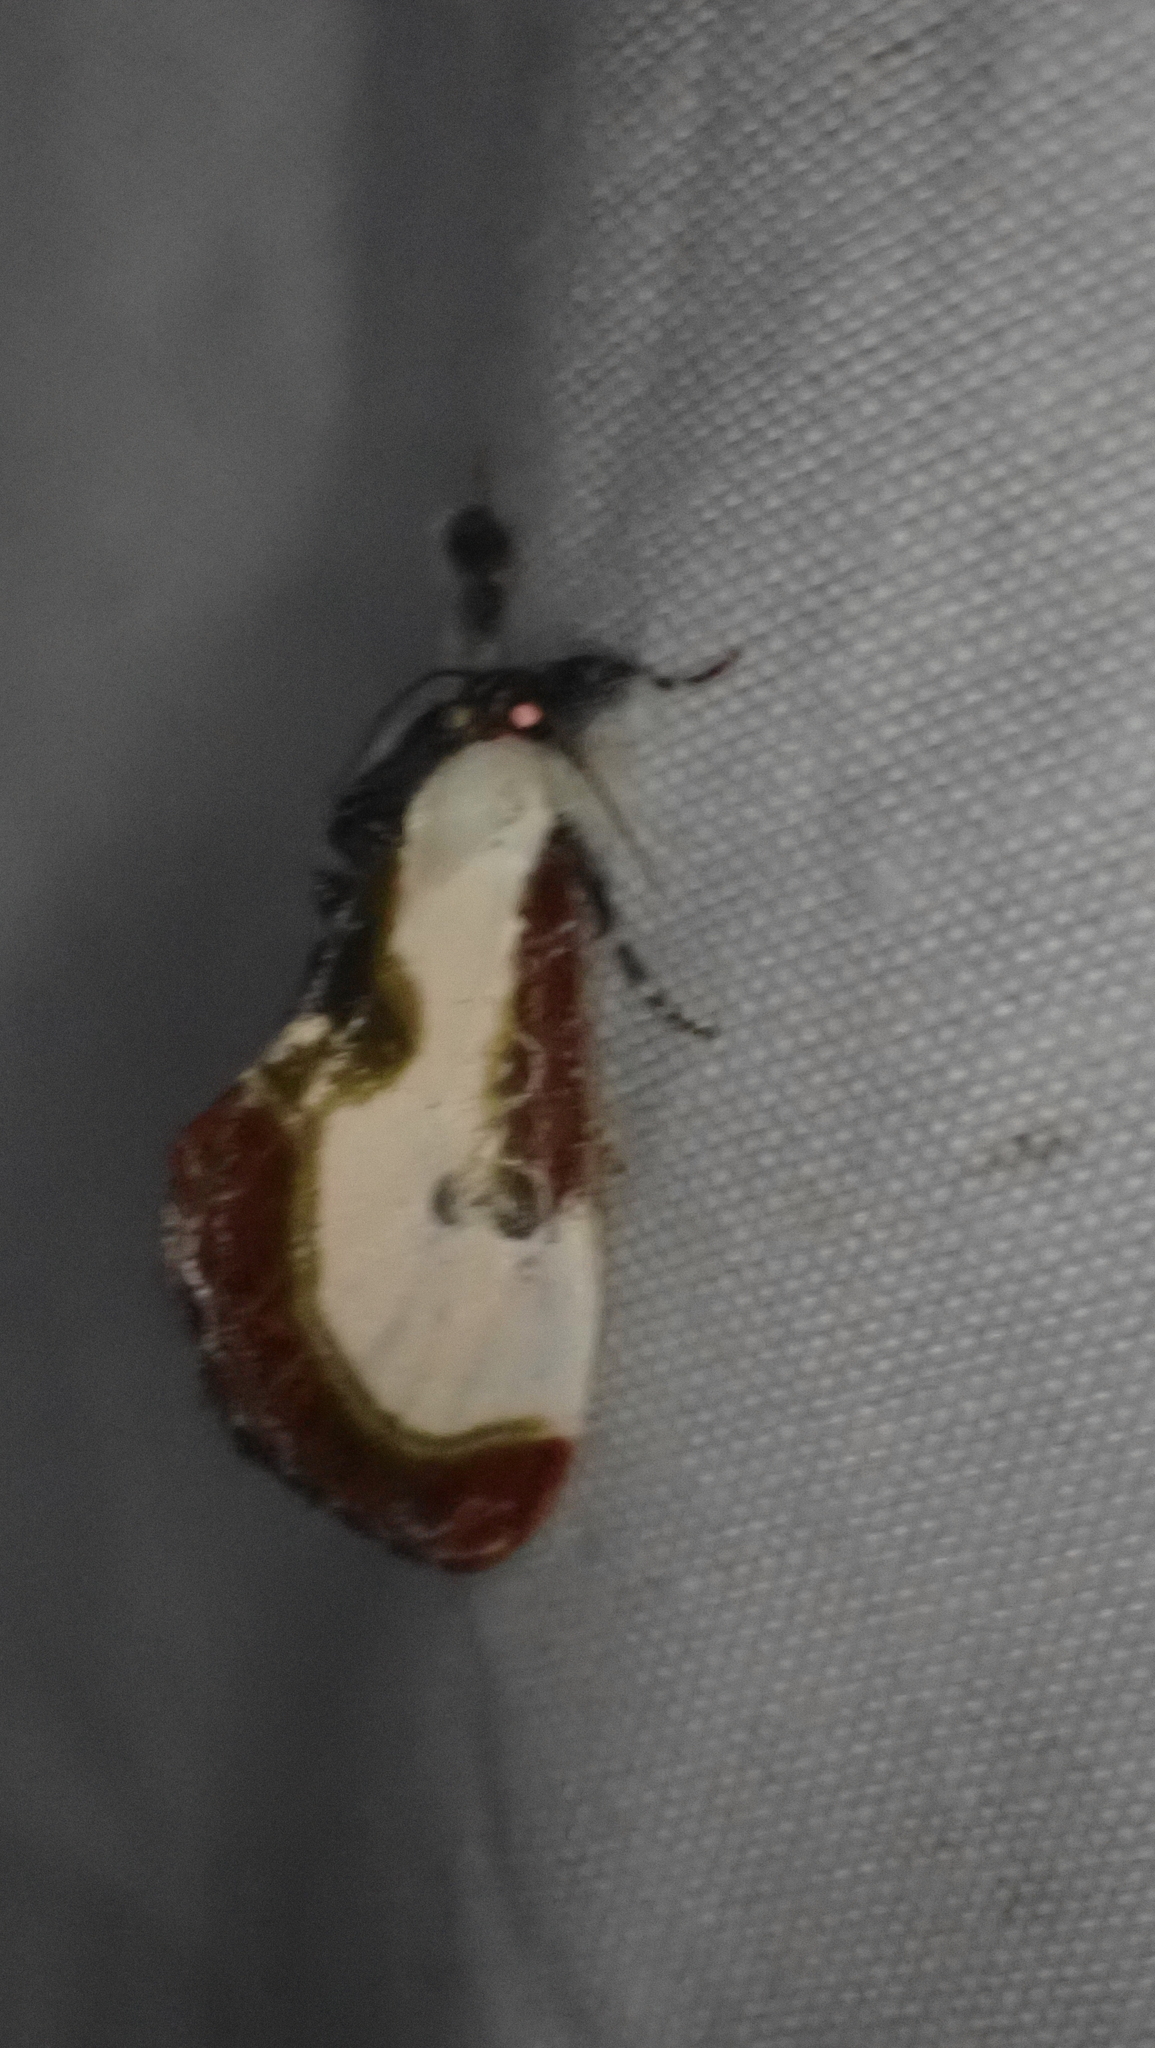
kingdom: Animalia
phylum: Arthropoda
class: Insecta
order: Lepidoptera
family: Noctuidae
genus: Eudryas
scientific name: Eudryas grata
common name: Beautiful wood-nymph
